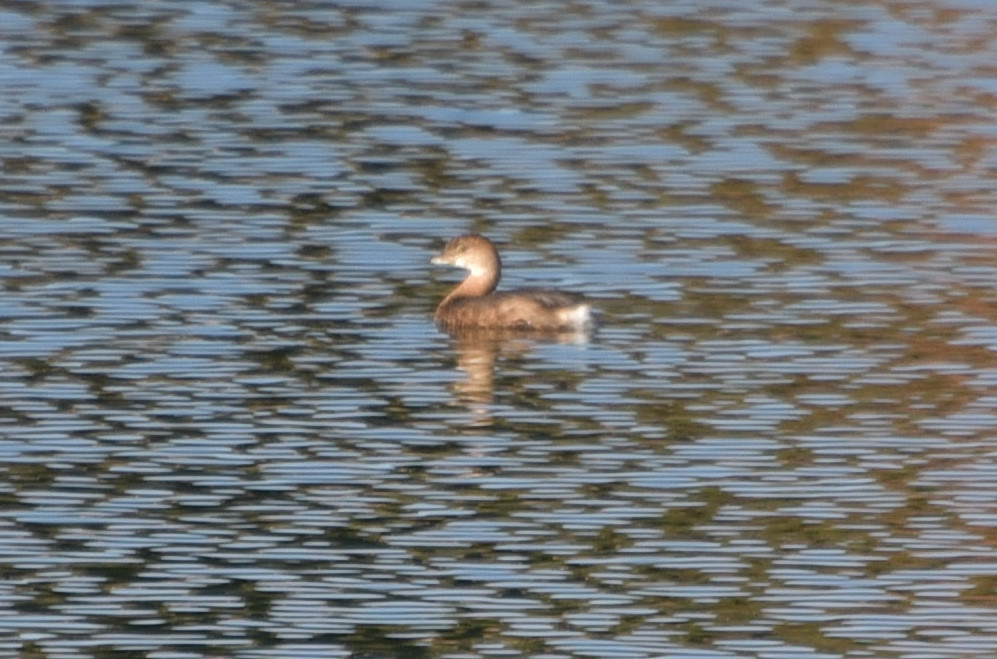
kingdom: Animalia
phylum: Chordata
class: Aves
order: Podicipediformes
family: Podicipedidae
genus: Podilymbus
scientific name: Podilymbus podiceps
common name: Pied-billed grebe
